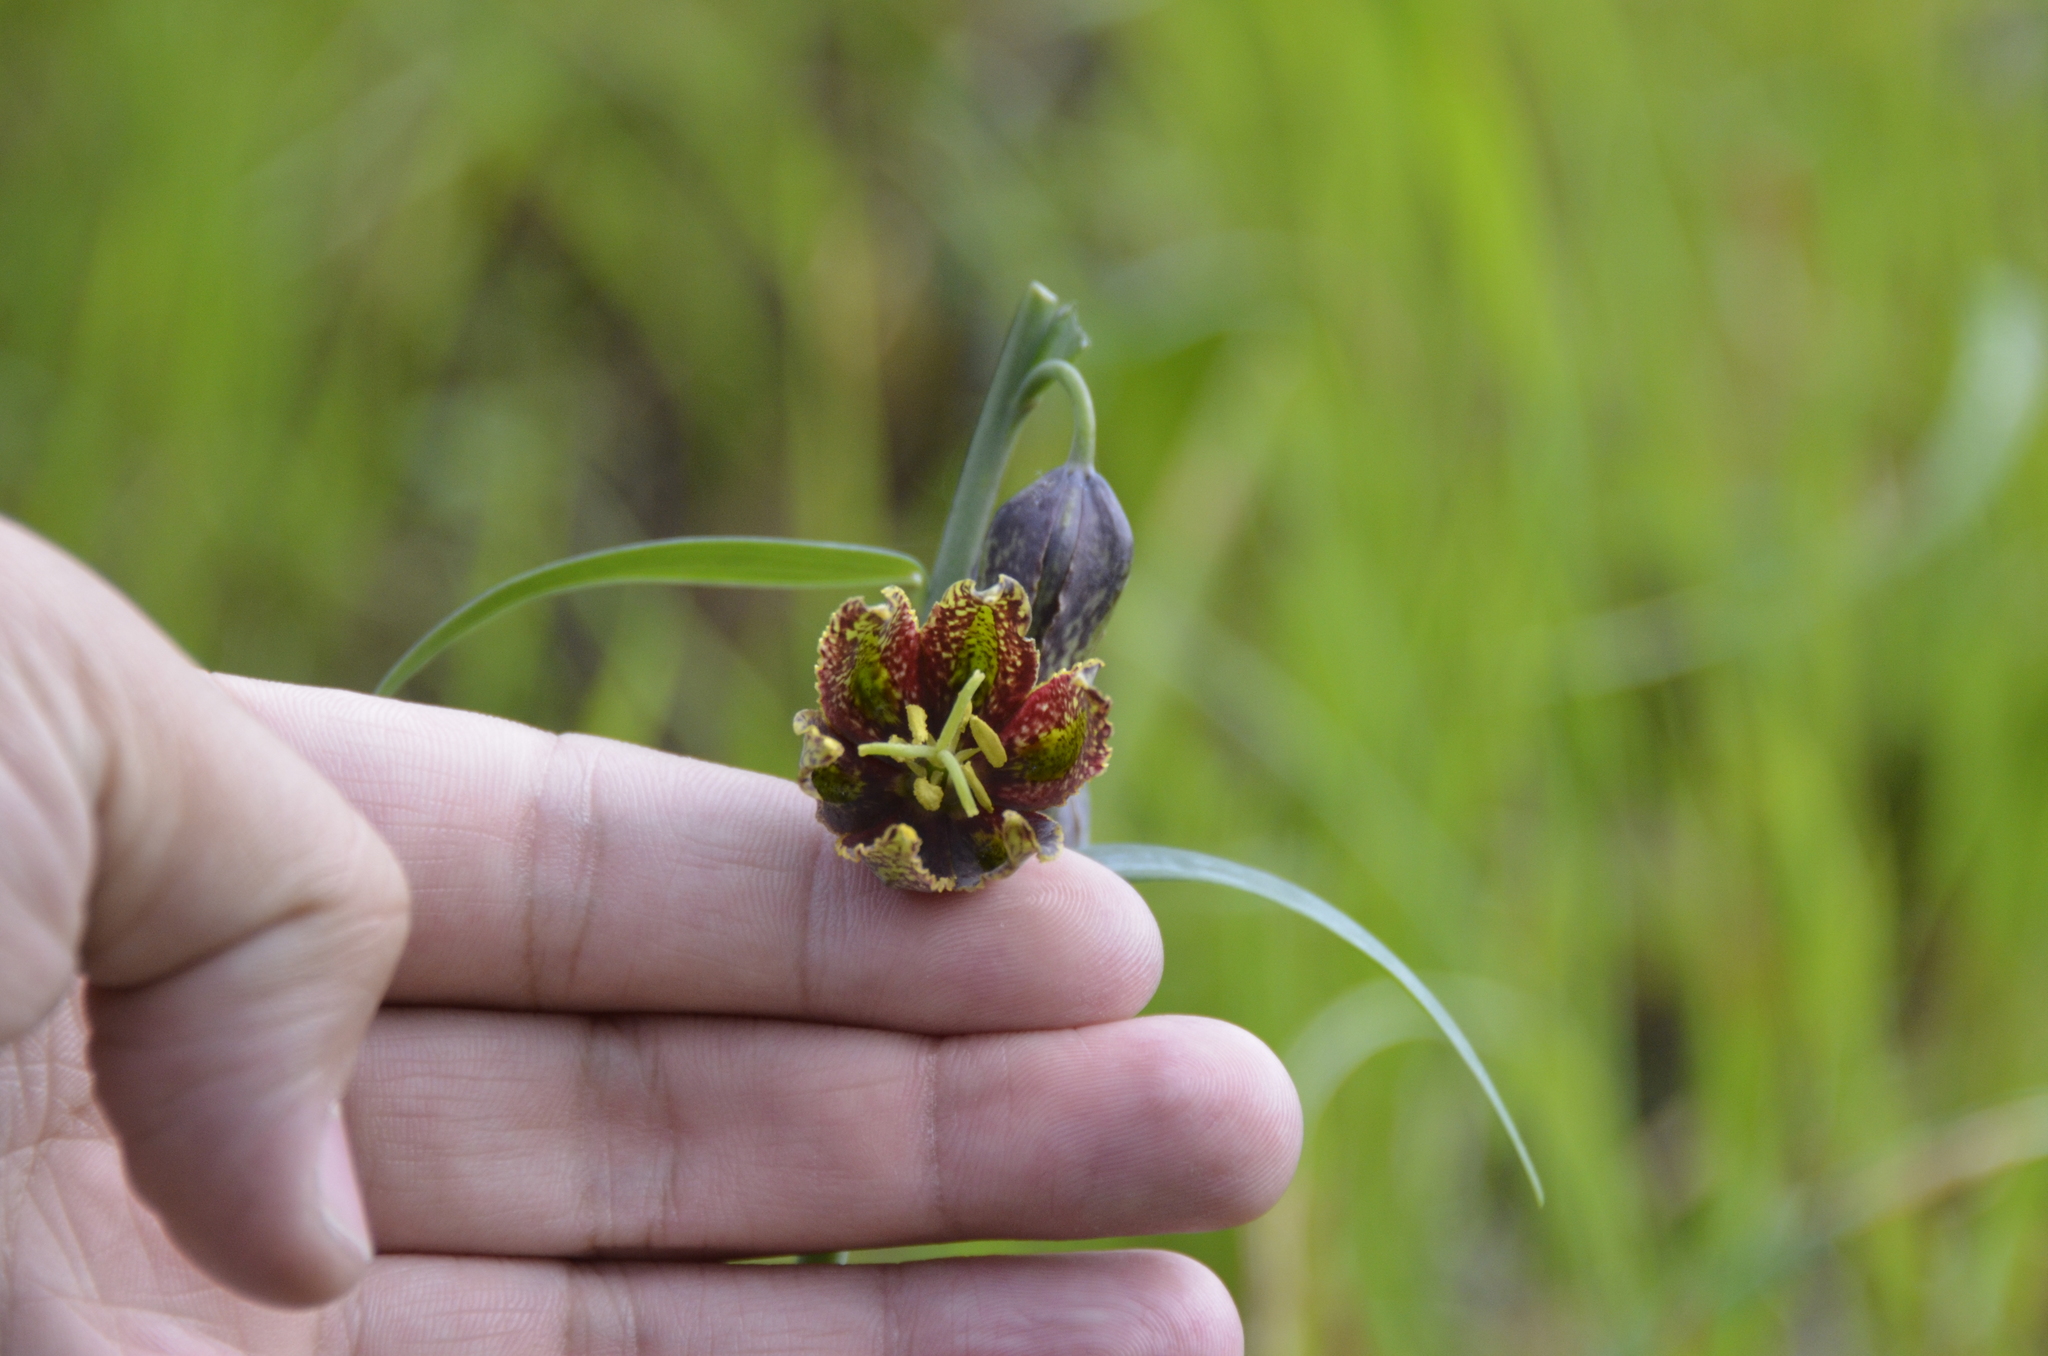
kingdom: Plantae
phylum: Tracheophyta
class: Liliopsida
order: Liliales
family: Liliaceae
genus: Fritillaria
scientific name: Fritillaria affinis
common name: Ojai fritillary
